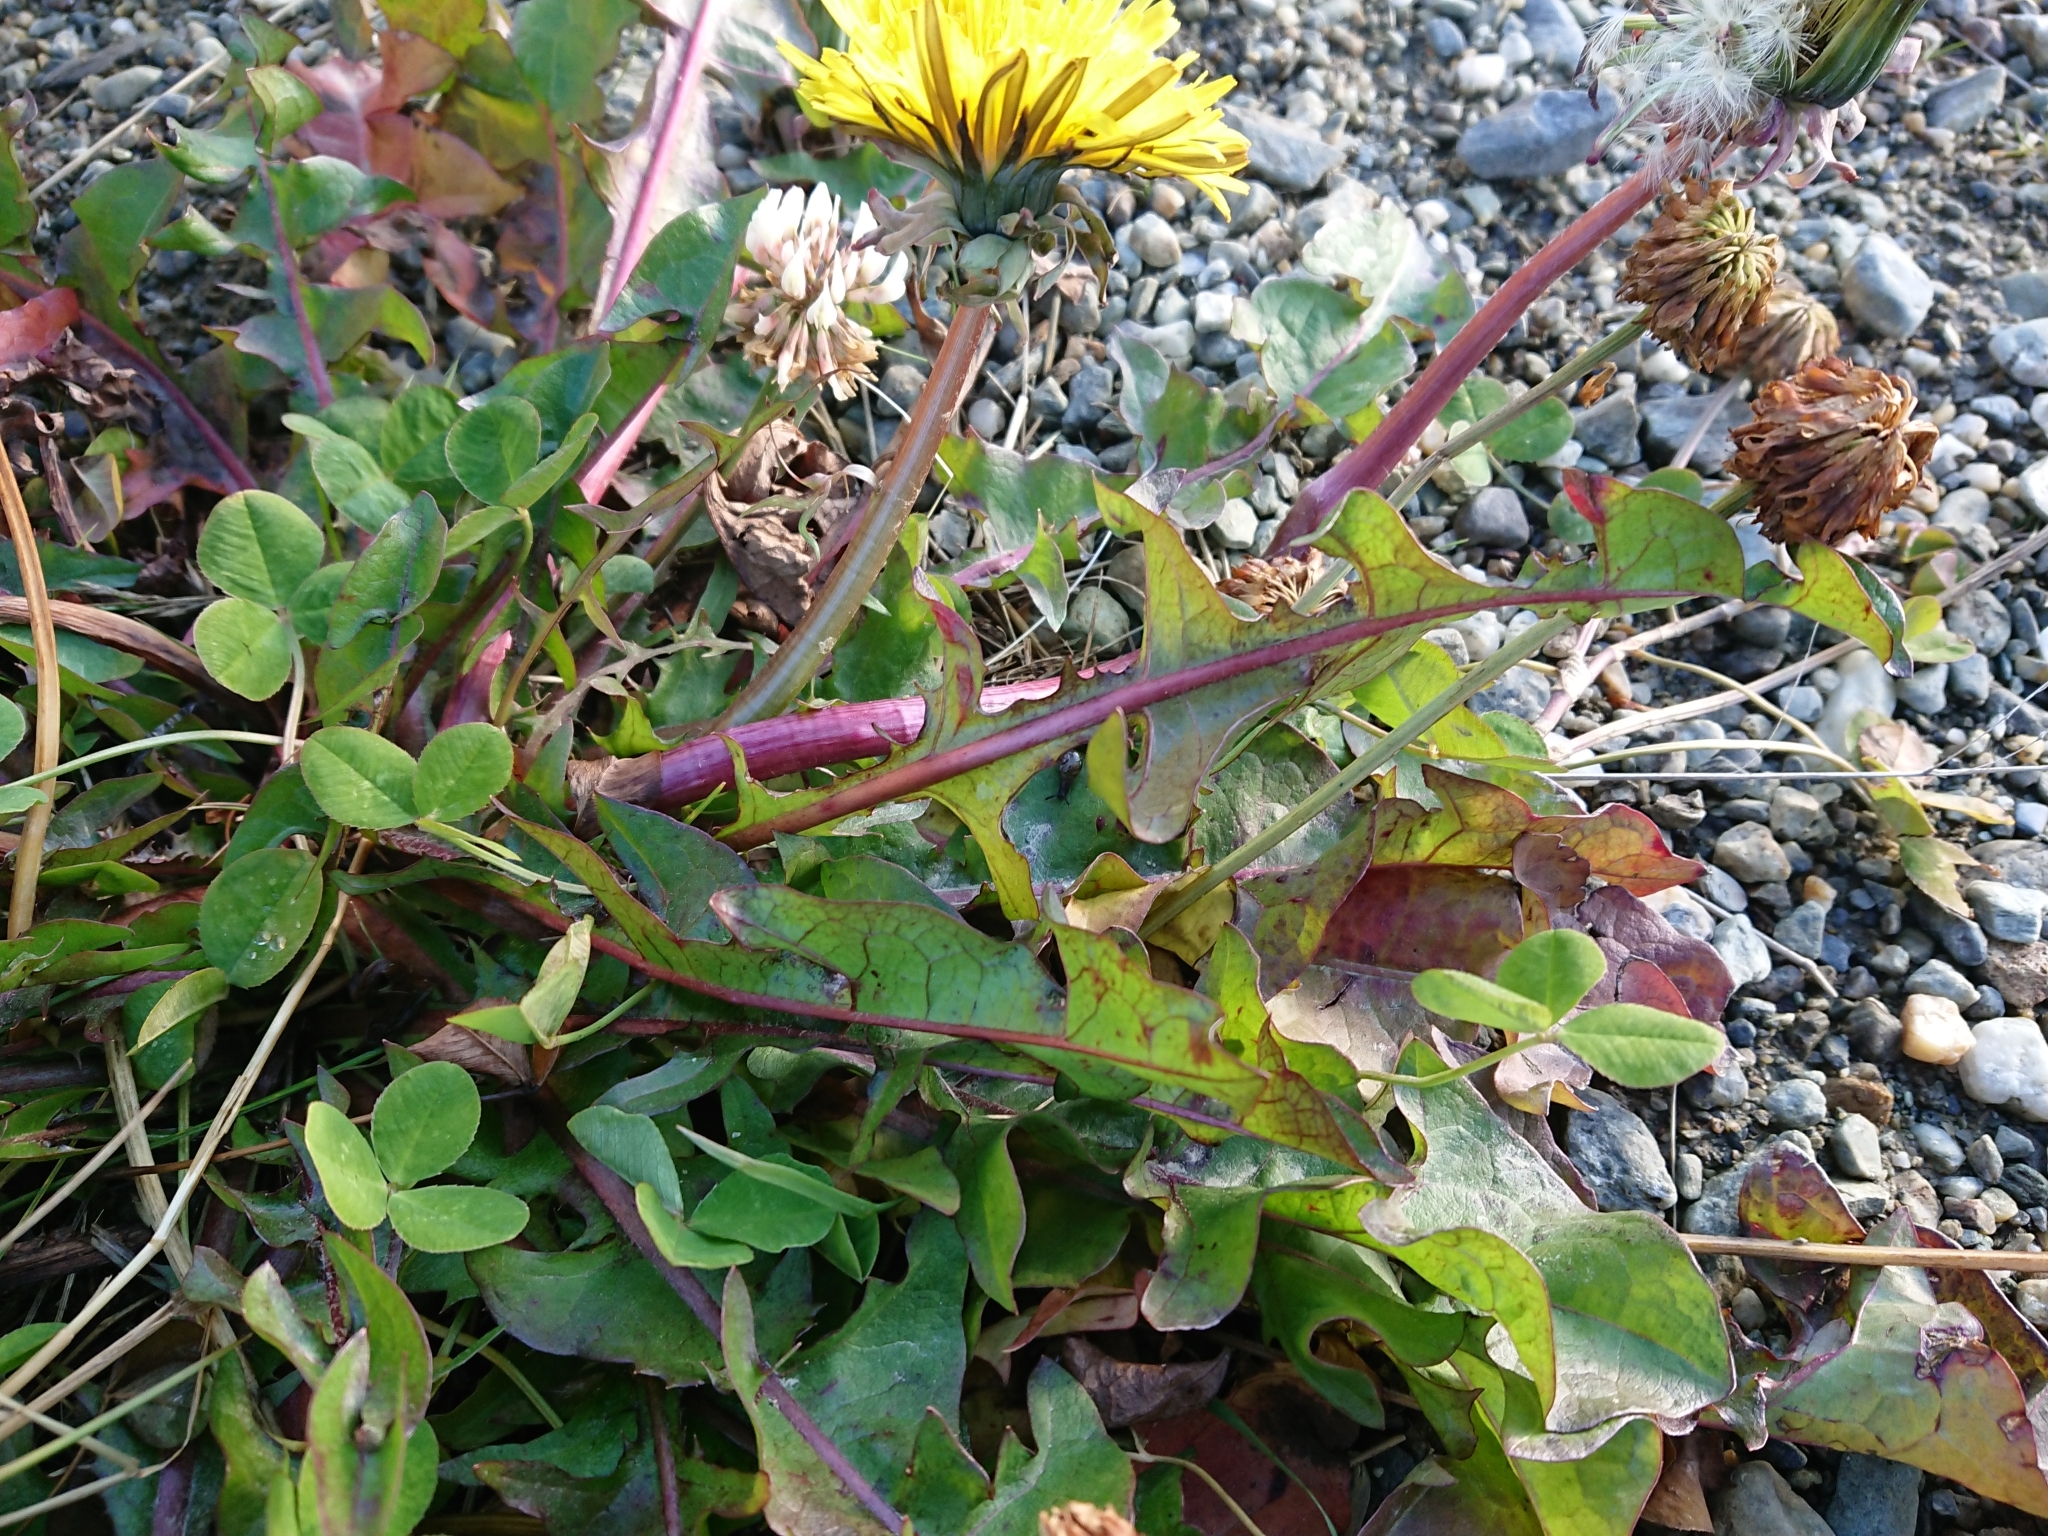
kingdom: Plantae
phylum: Tracheophyta
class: Magnoliopsida
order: Asterales
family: Asteraceae
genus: Taraxacum
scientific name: Taraxacum officinale
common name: Common dandelion
